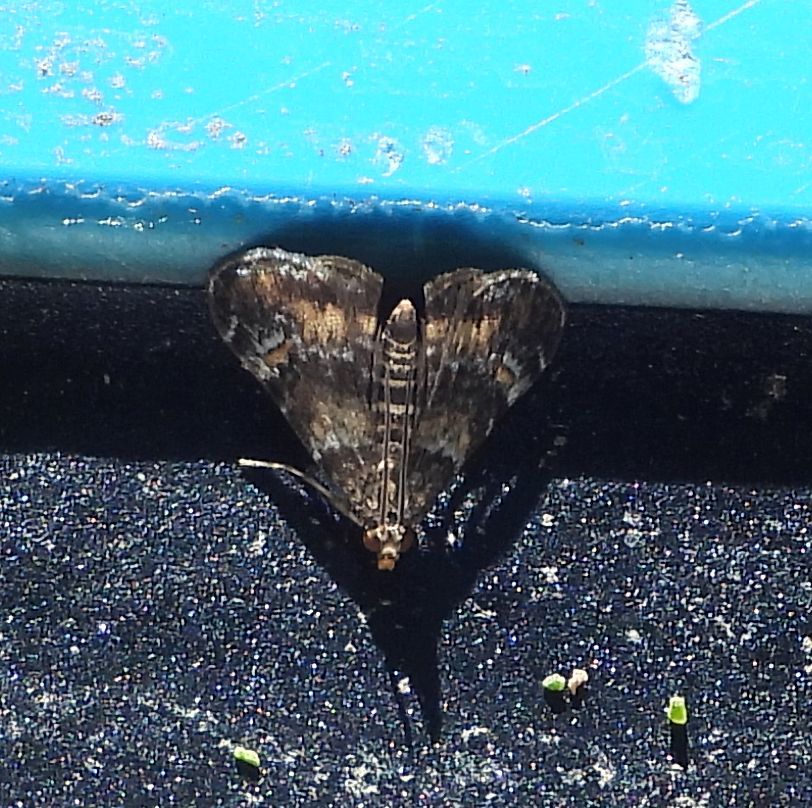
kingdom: Animalia
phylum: Arthropoda
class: Insecta
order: Lepidoptera
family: Crambidae
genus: Elophila
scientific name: Elophila obliteralis
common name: Waterlily leafcutter moth
